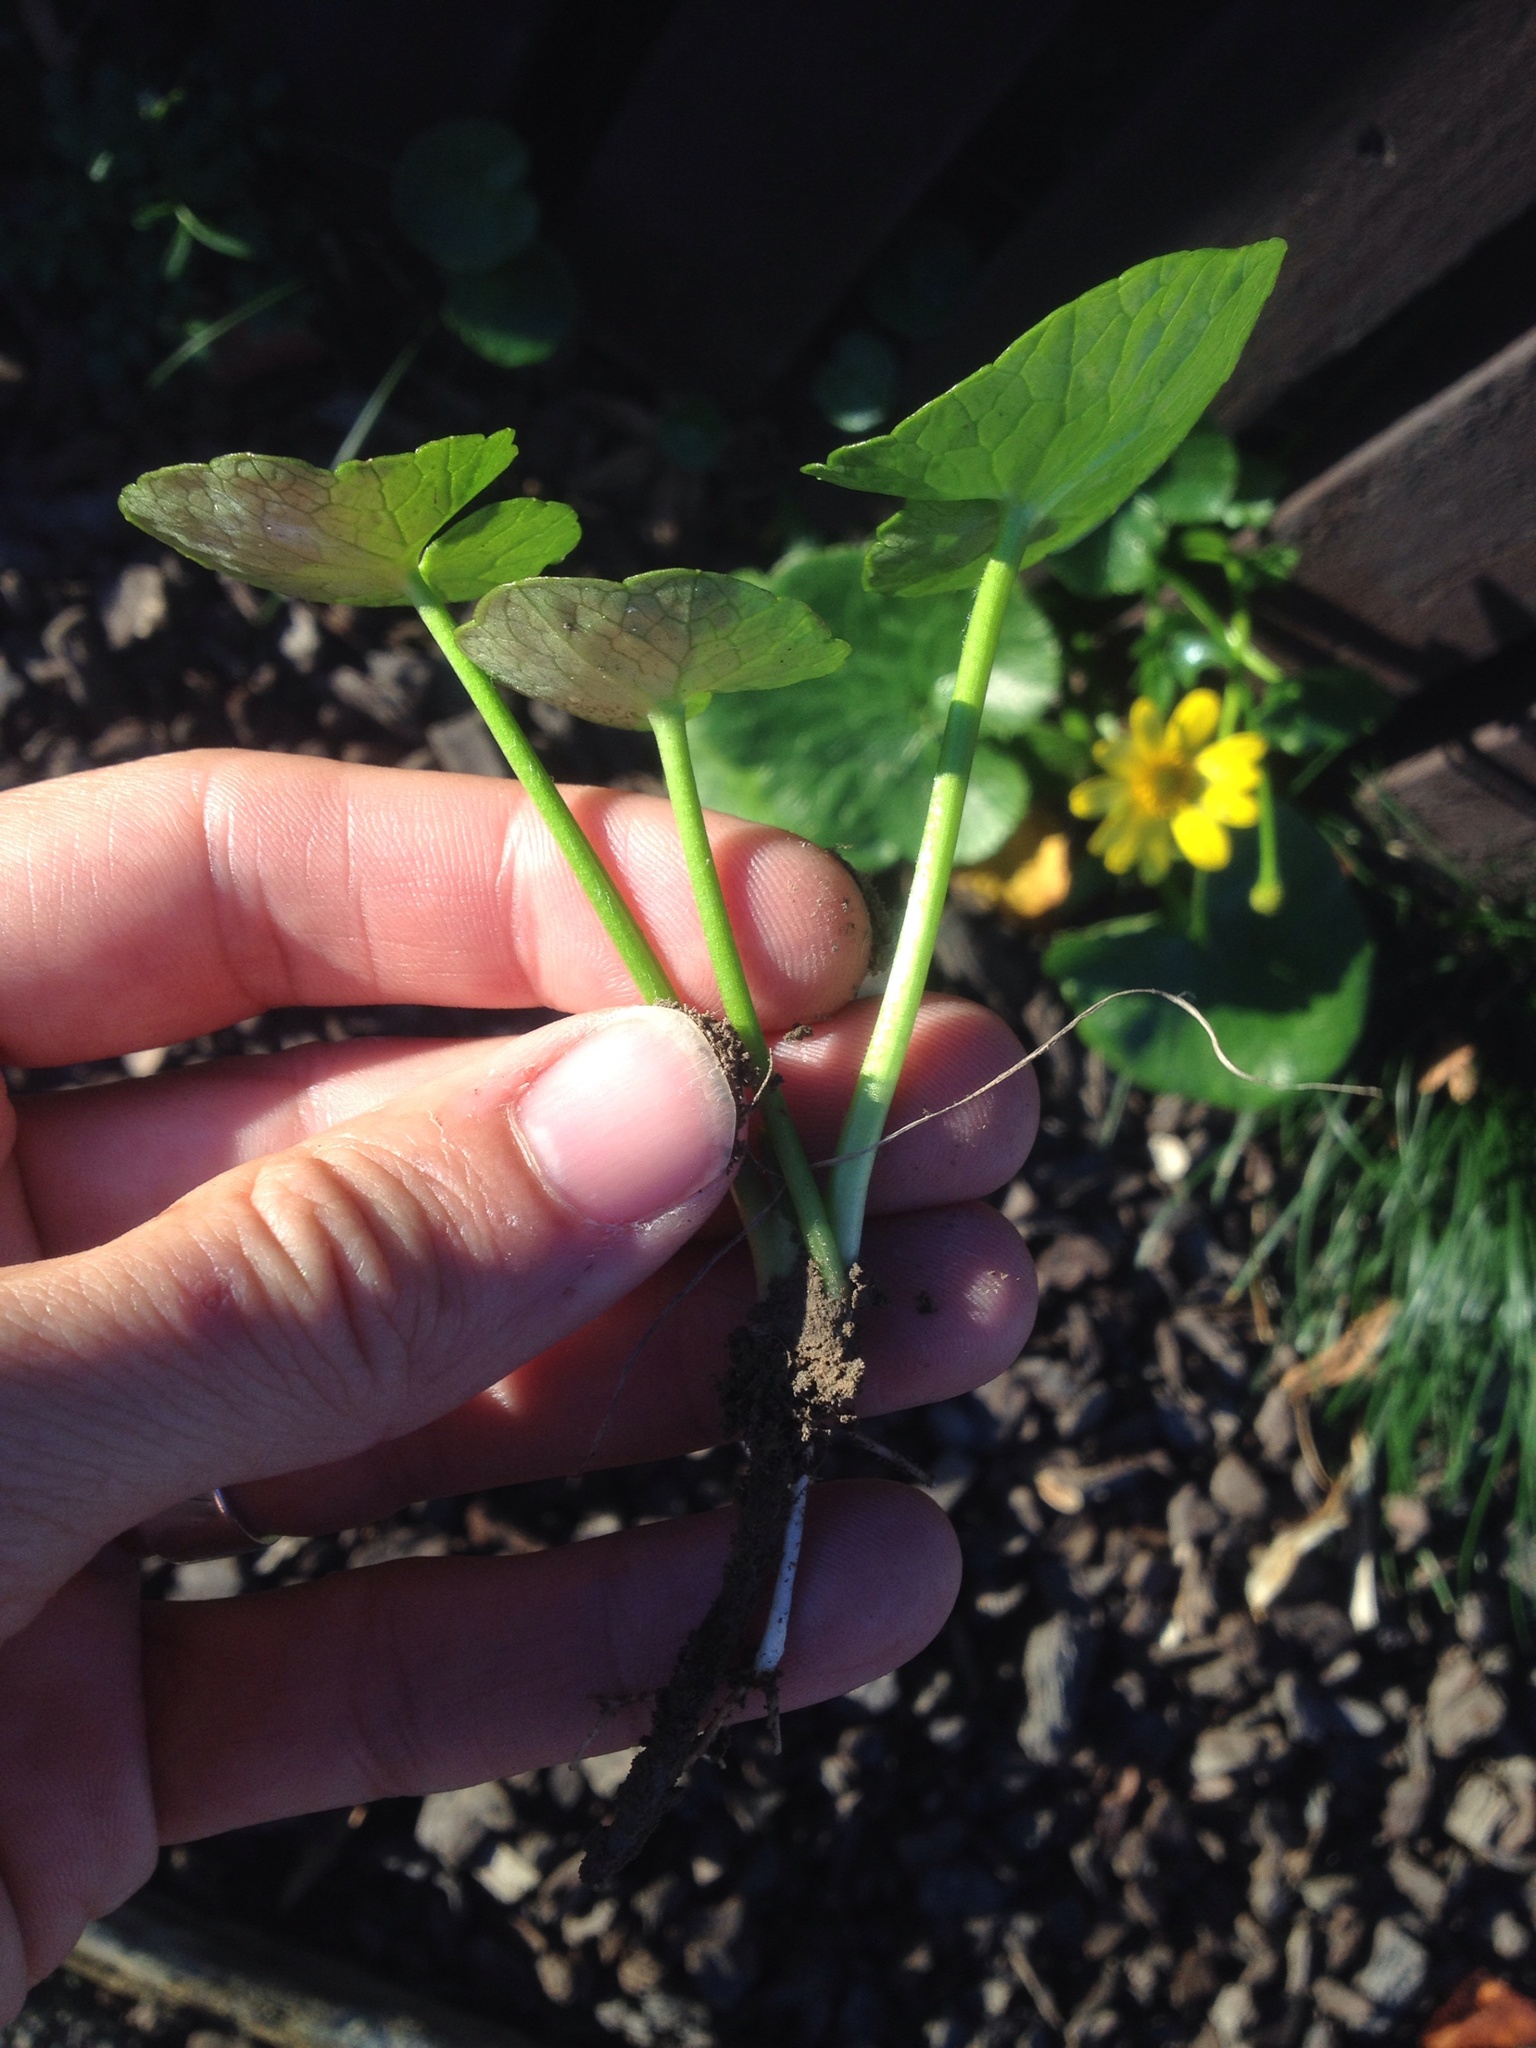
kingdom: Plantae
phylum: Tracheophyta
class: Magnoliopsida
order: Ranunculales
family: Ranunculaceae
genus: Ficaria
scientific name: Ficaria grandiflora
